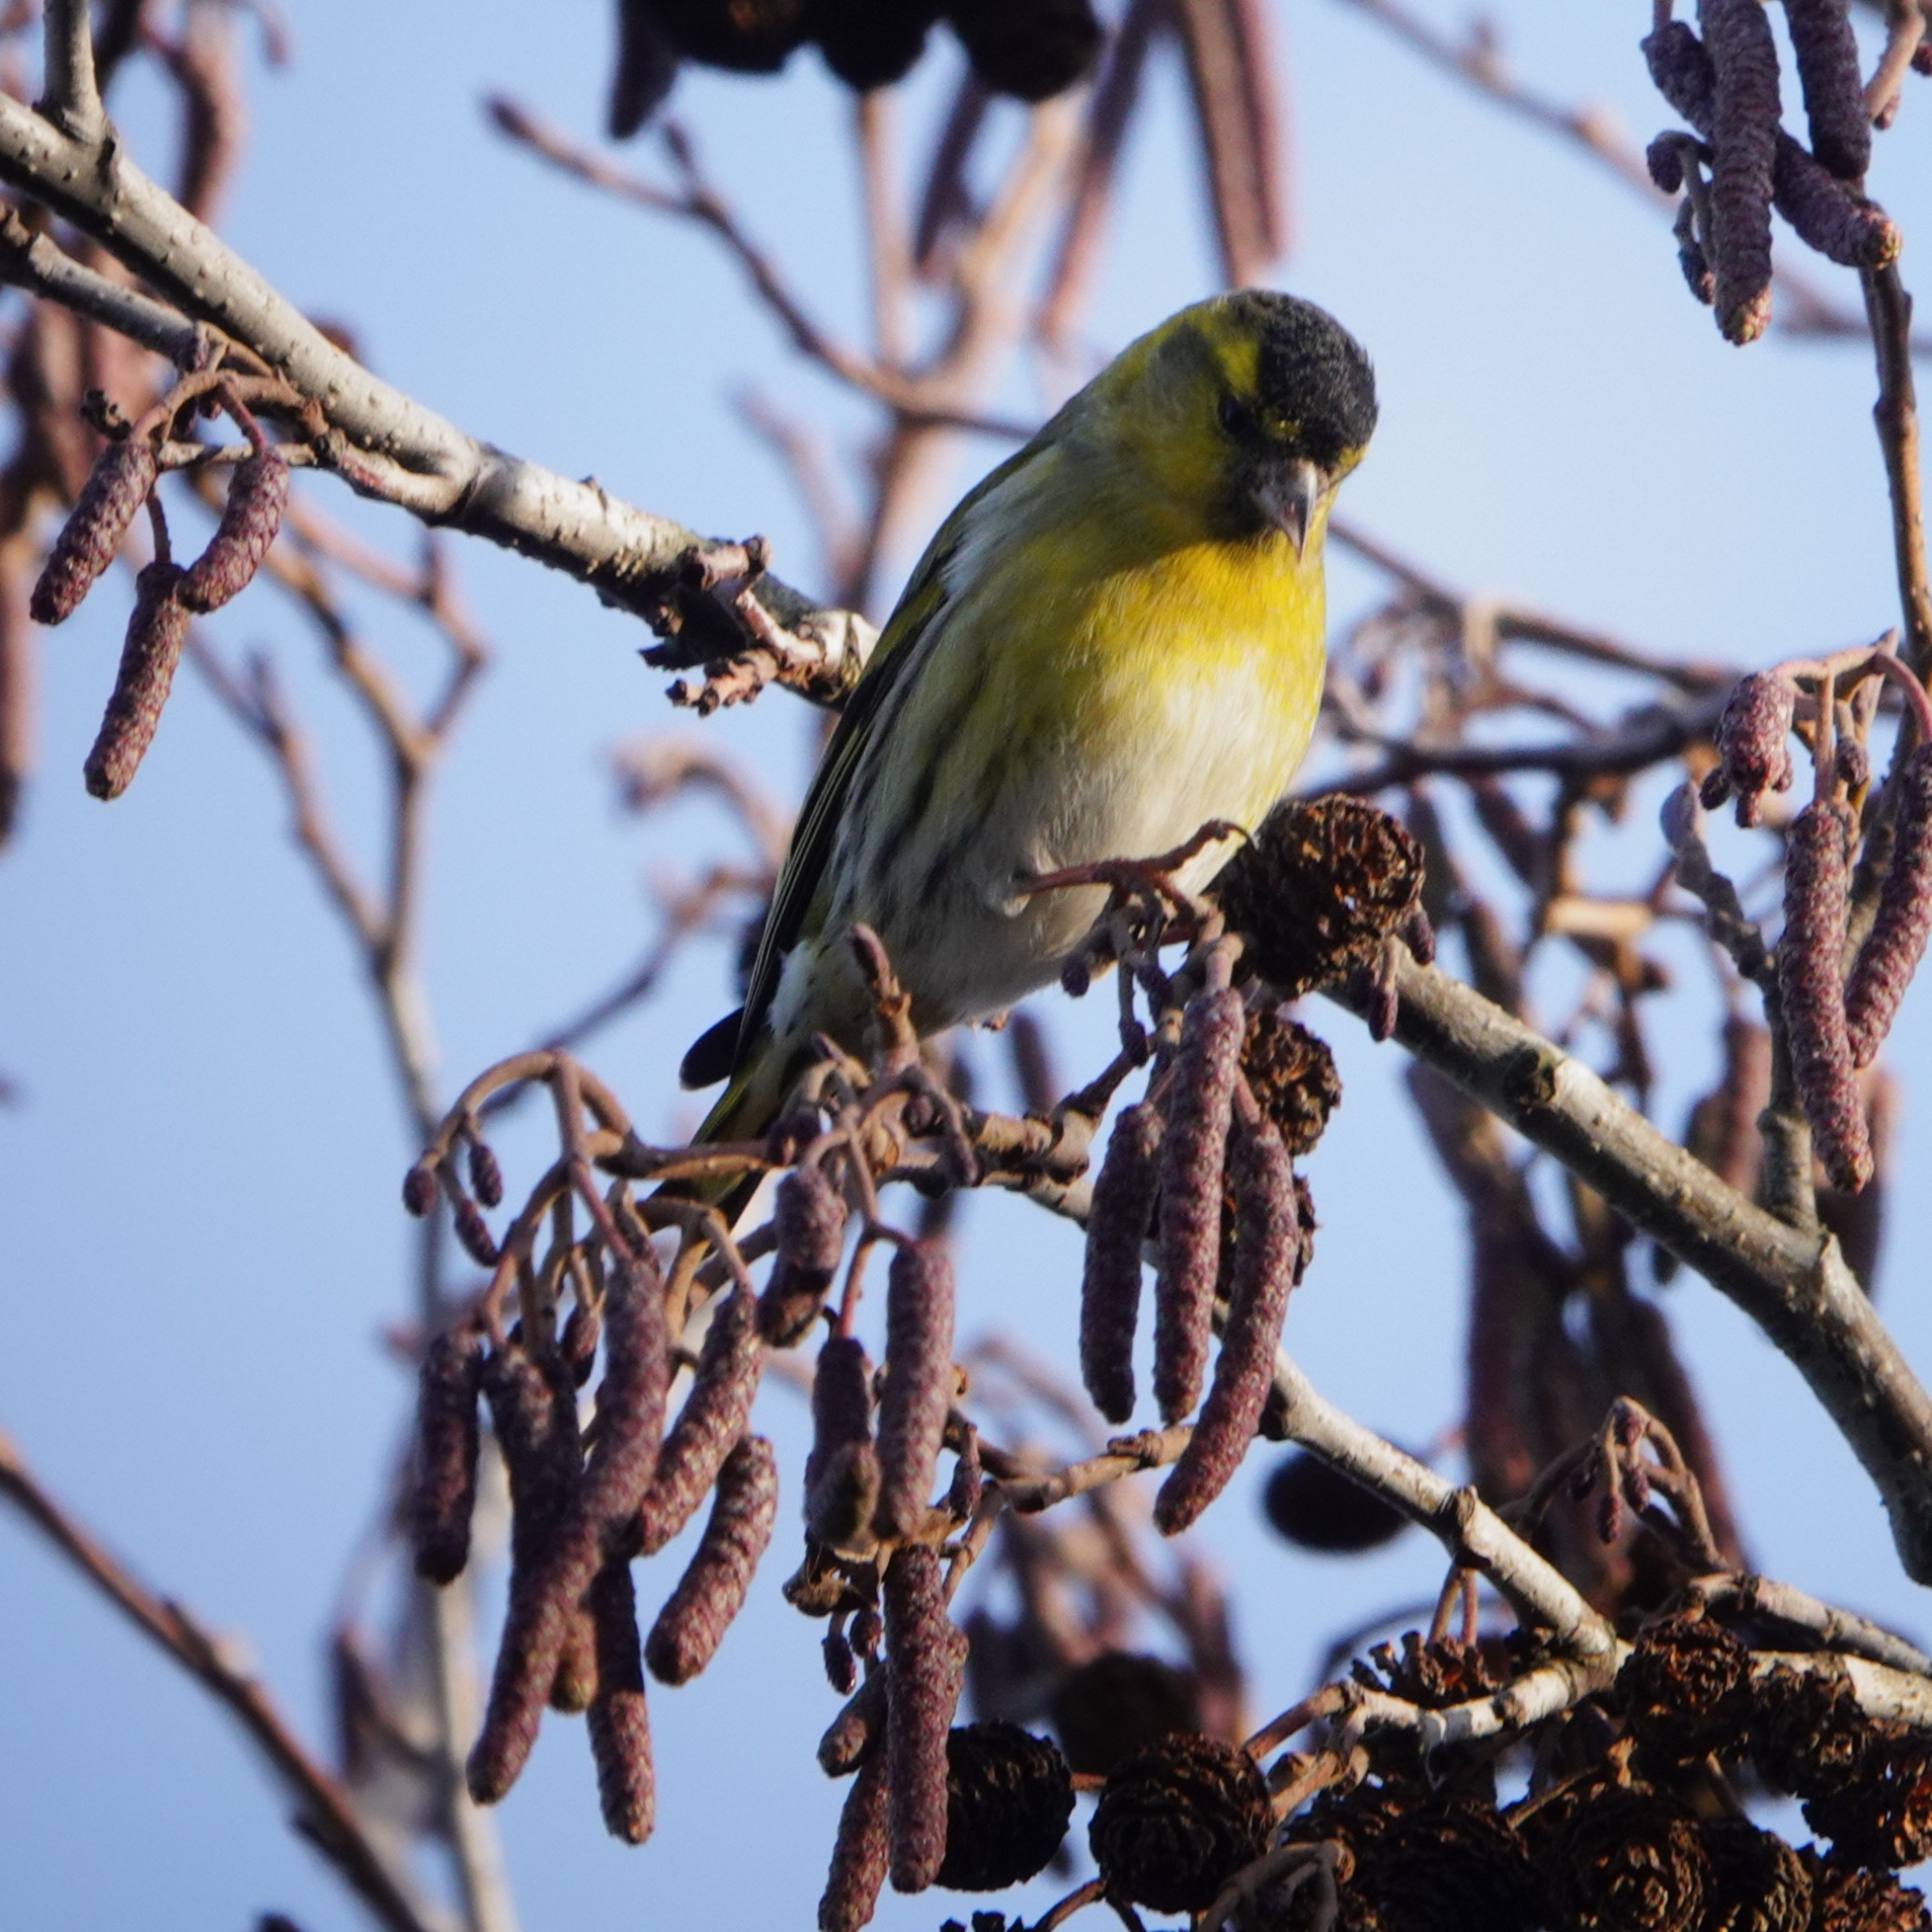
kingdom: Animalia
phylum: Chordata
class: Aves
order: Passeriformes
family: Fringillidae
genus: Spinus
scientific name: Spinus spinus
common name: Eurasian siskin
